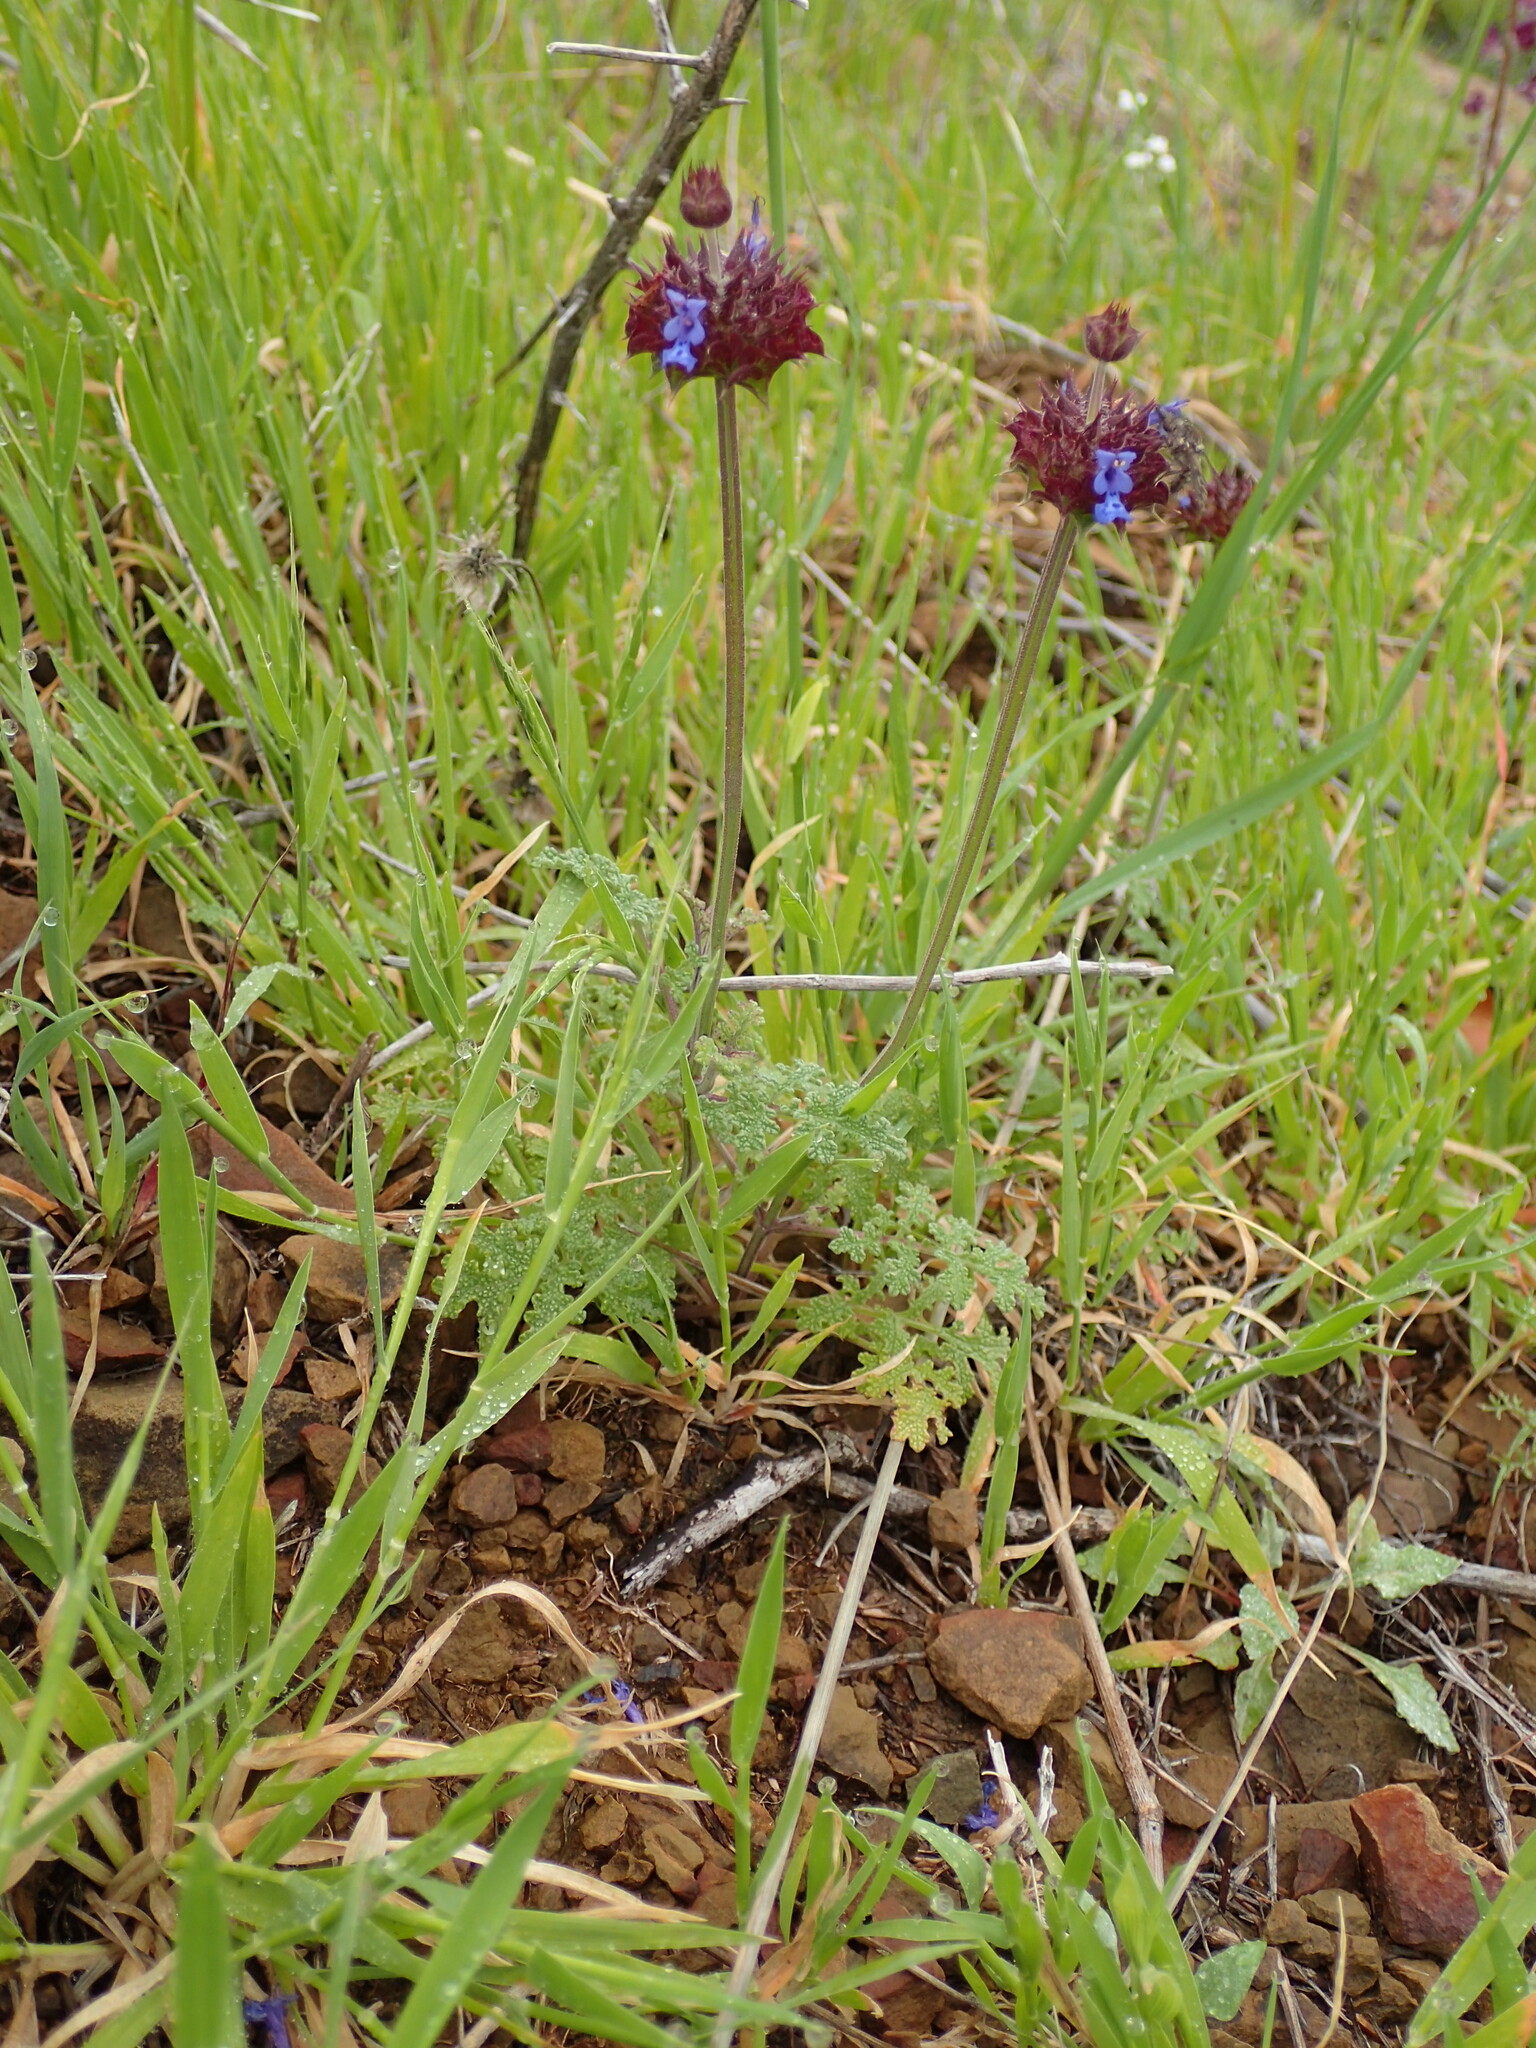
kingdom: Plantae
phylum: Tracheophyta
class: Magnoliopsida
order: Lamiales
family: Lamiaceae
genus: Salvia
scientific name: Salvia columbariae
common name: Chia
